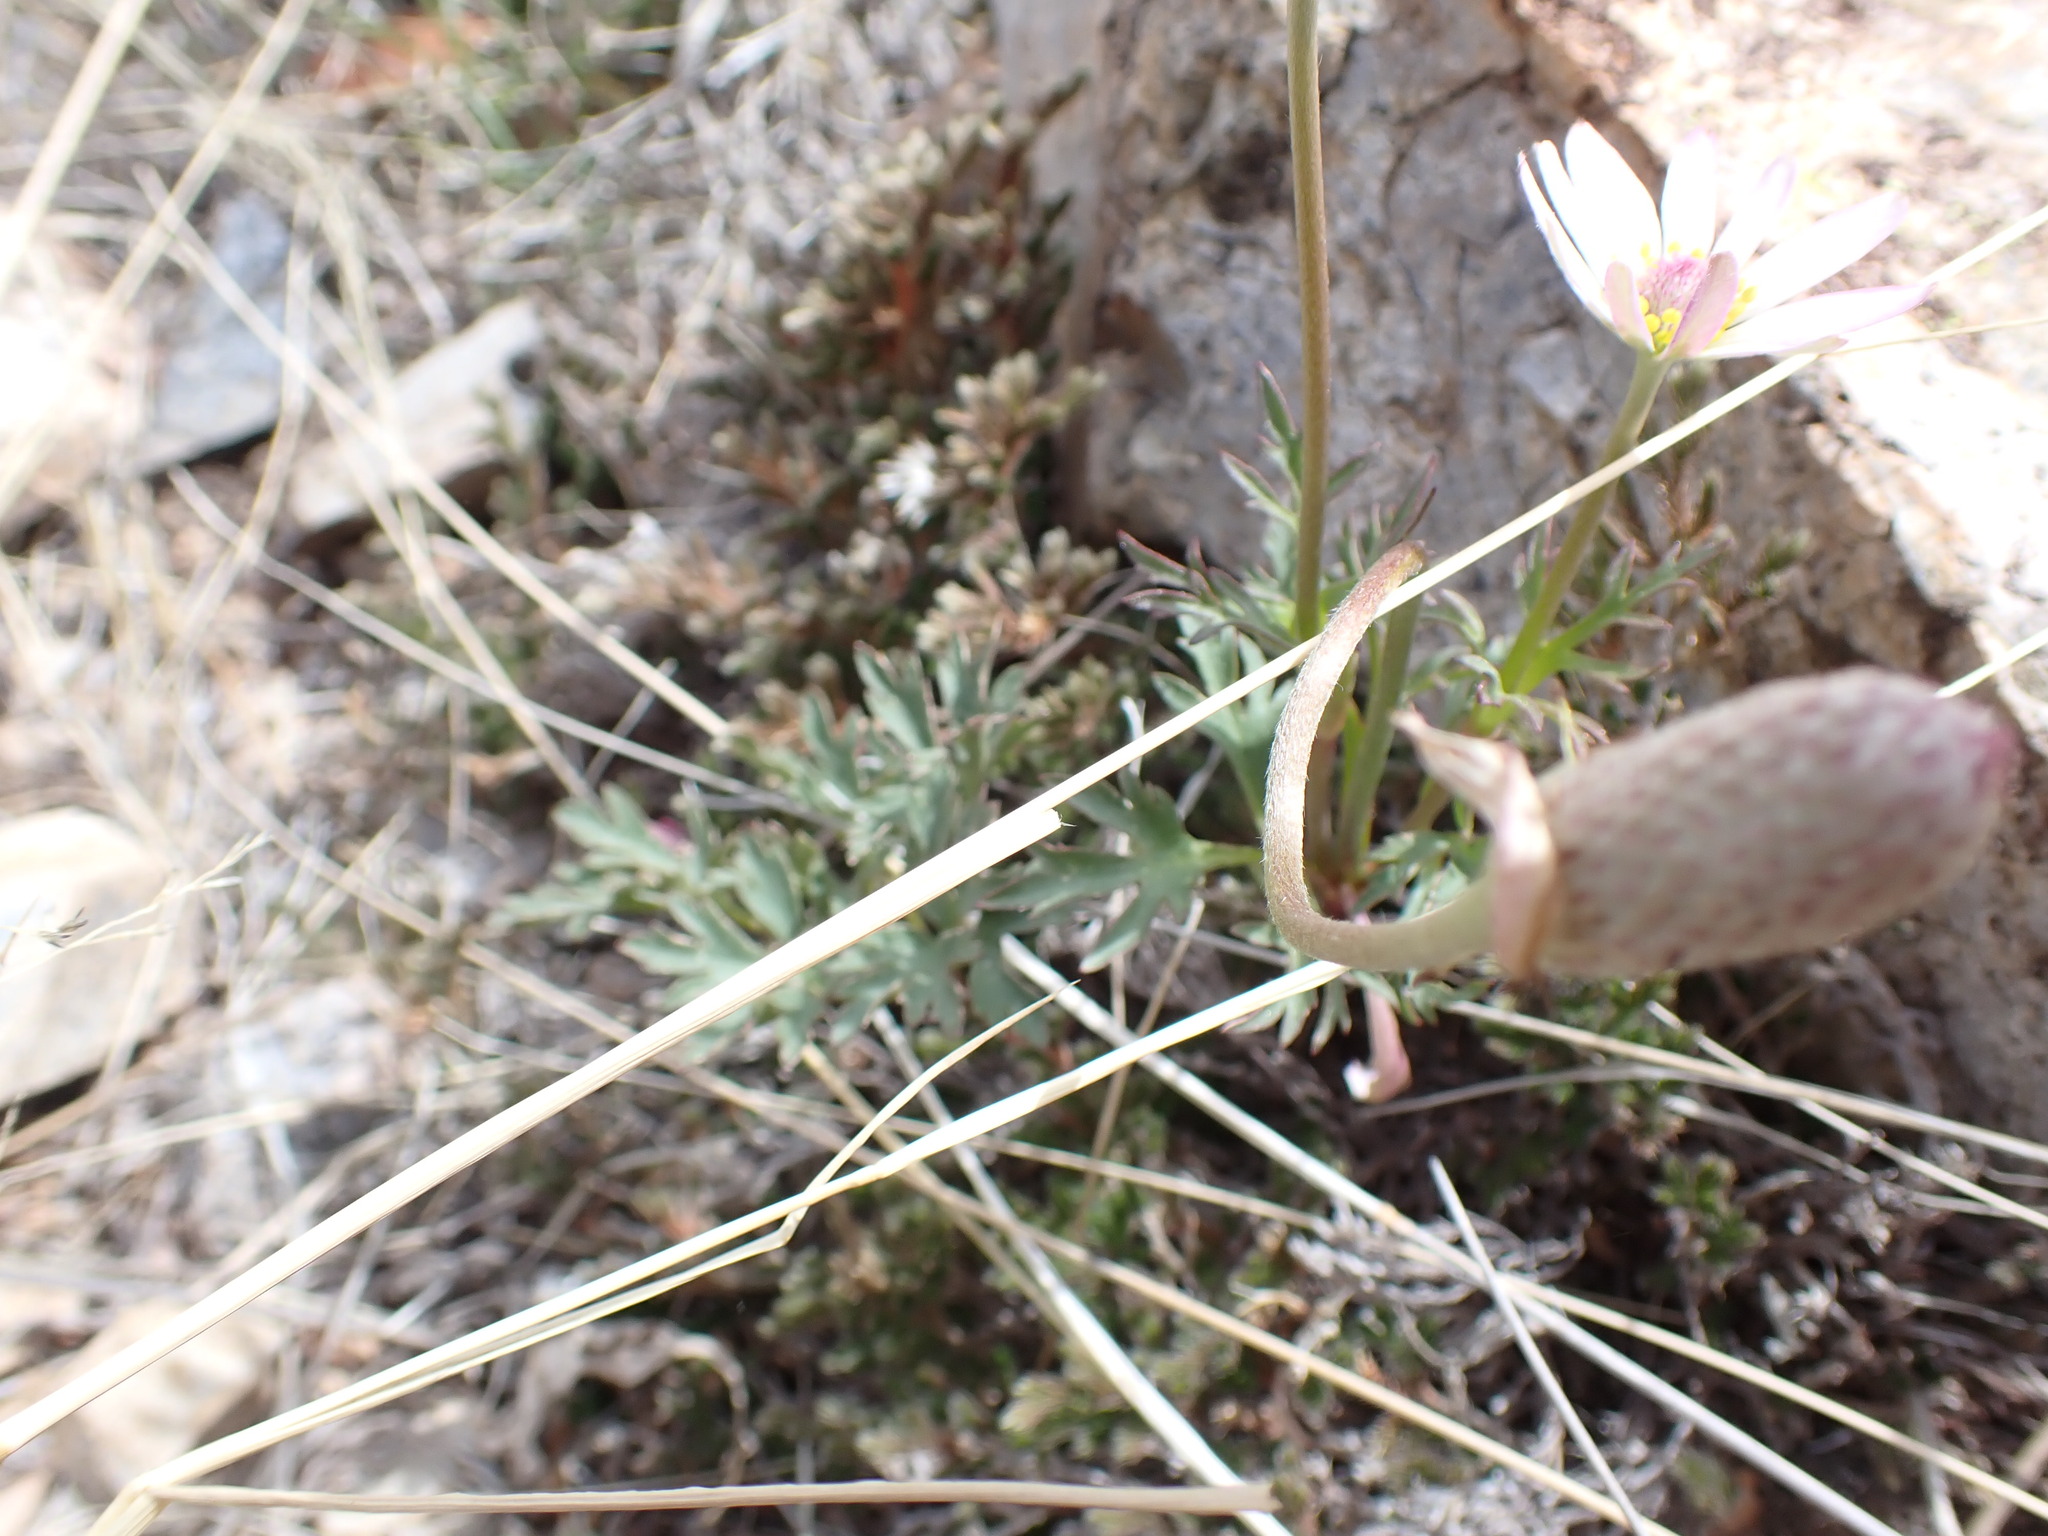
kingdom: Plantae
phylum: Tracheophyta
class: Magnoliopsida
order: Ranunculales
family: Ranunculaceae
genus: Anemone
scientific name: Anemone tuberosa
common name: Desert anemone
